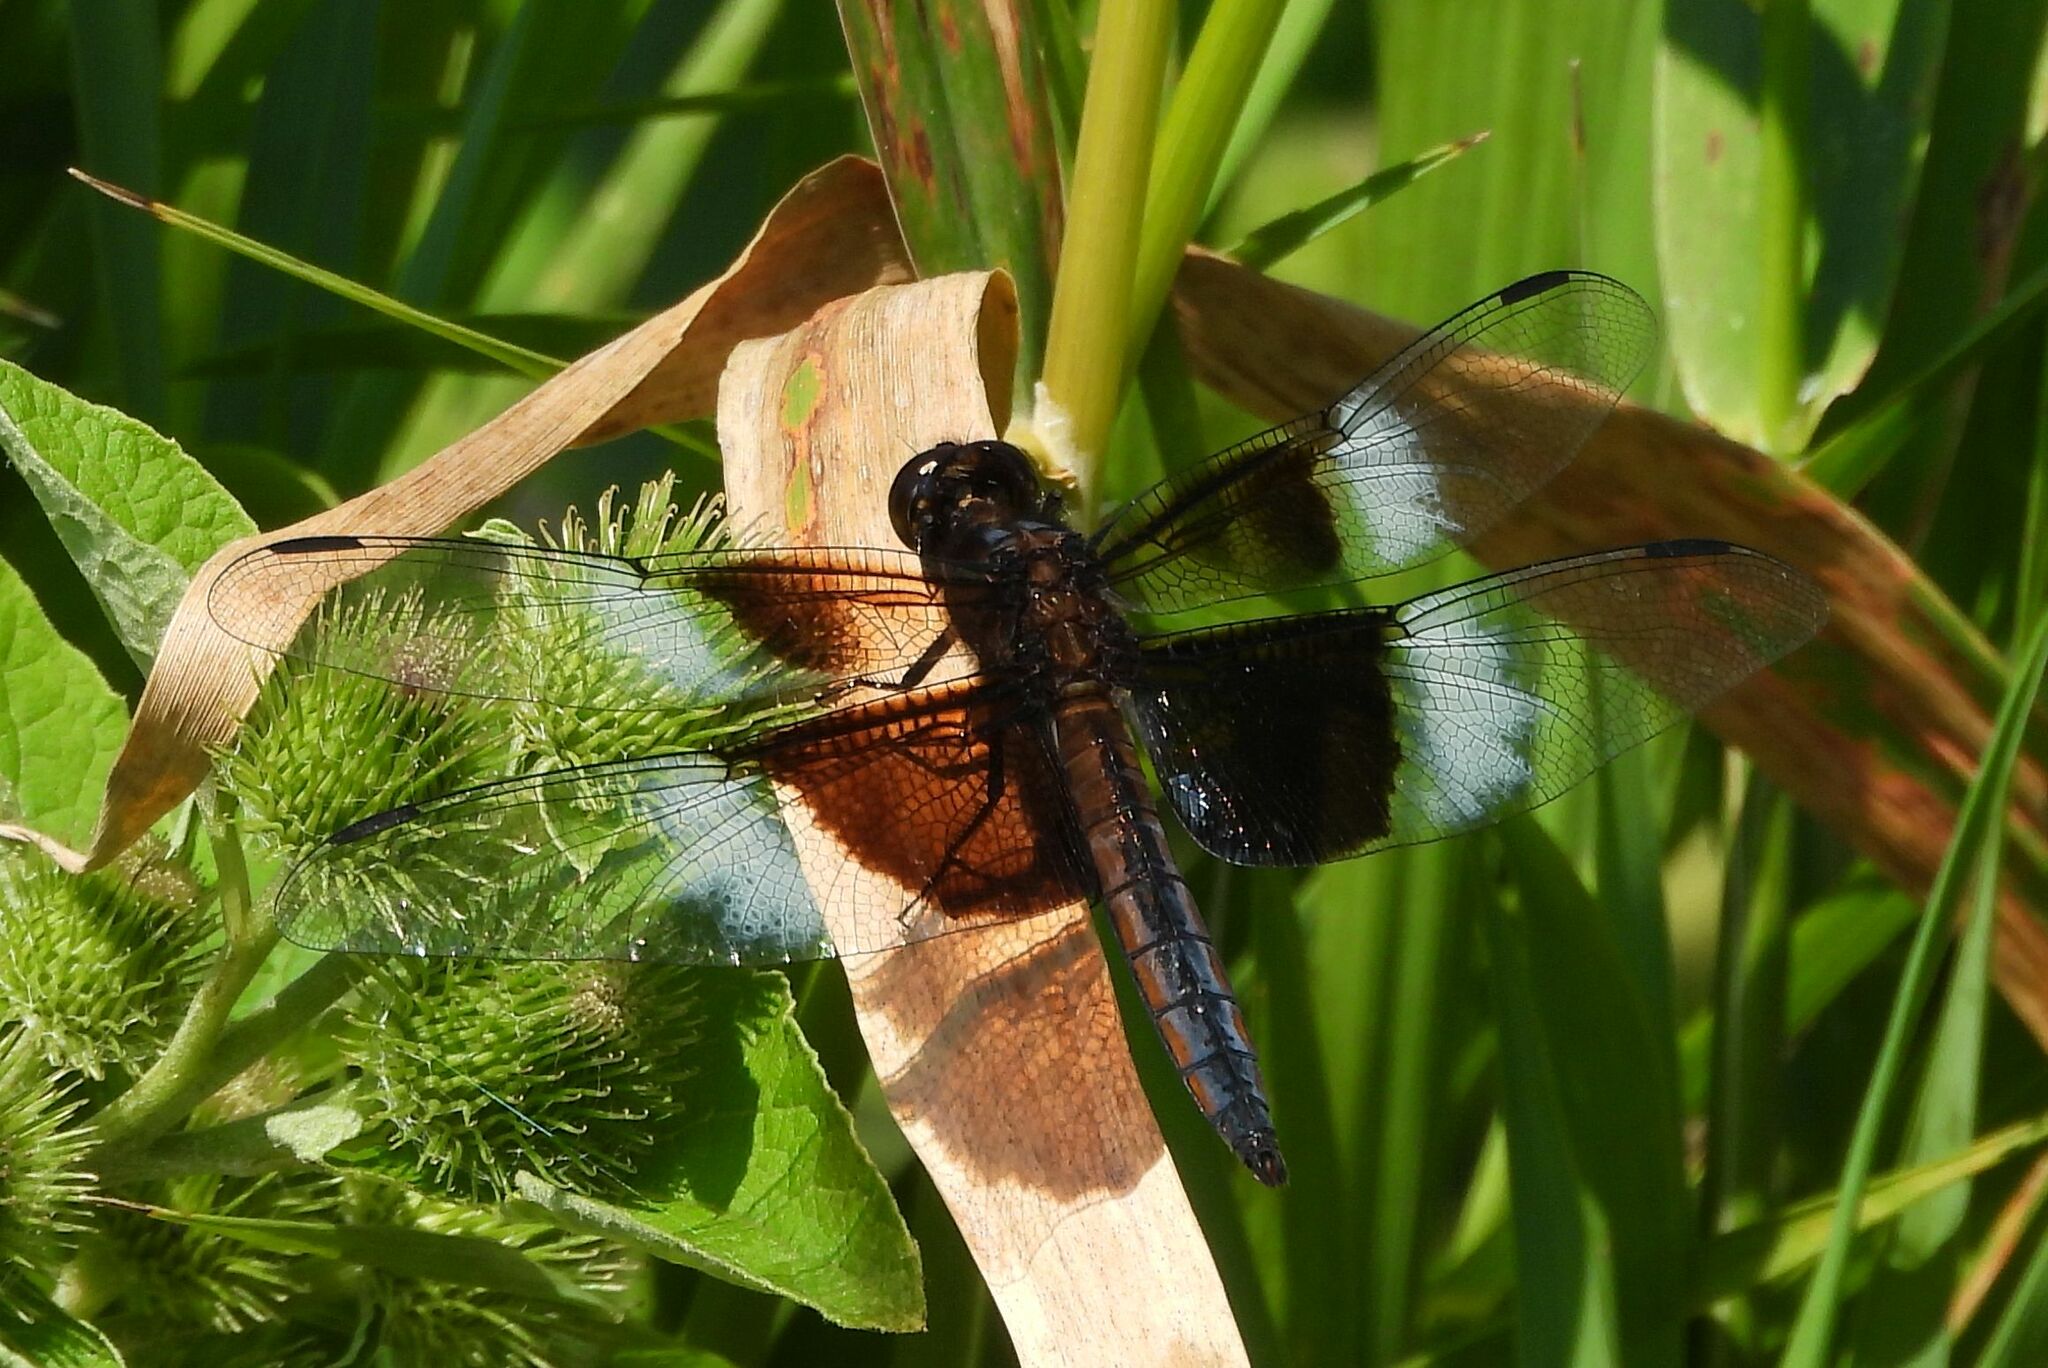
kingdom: Animalia
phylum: Arthropoda
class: Insecta
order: Odonata
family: Libellulidae
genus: Libellula
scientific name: Libellula luctuosa
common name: Widow skimmer
